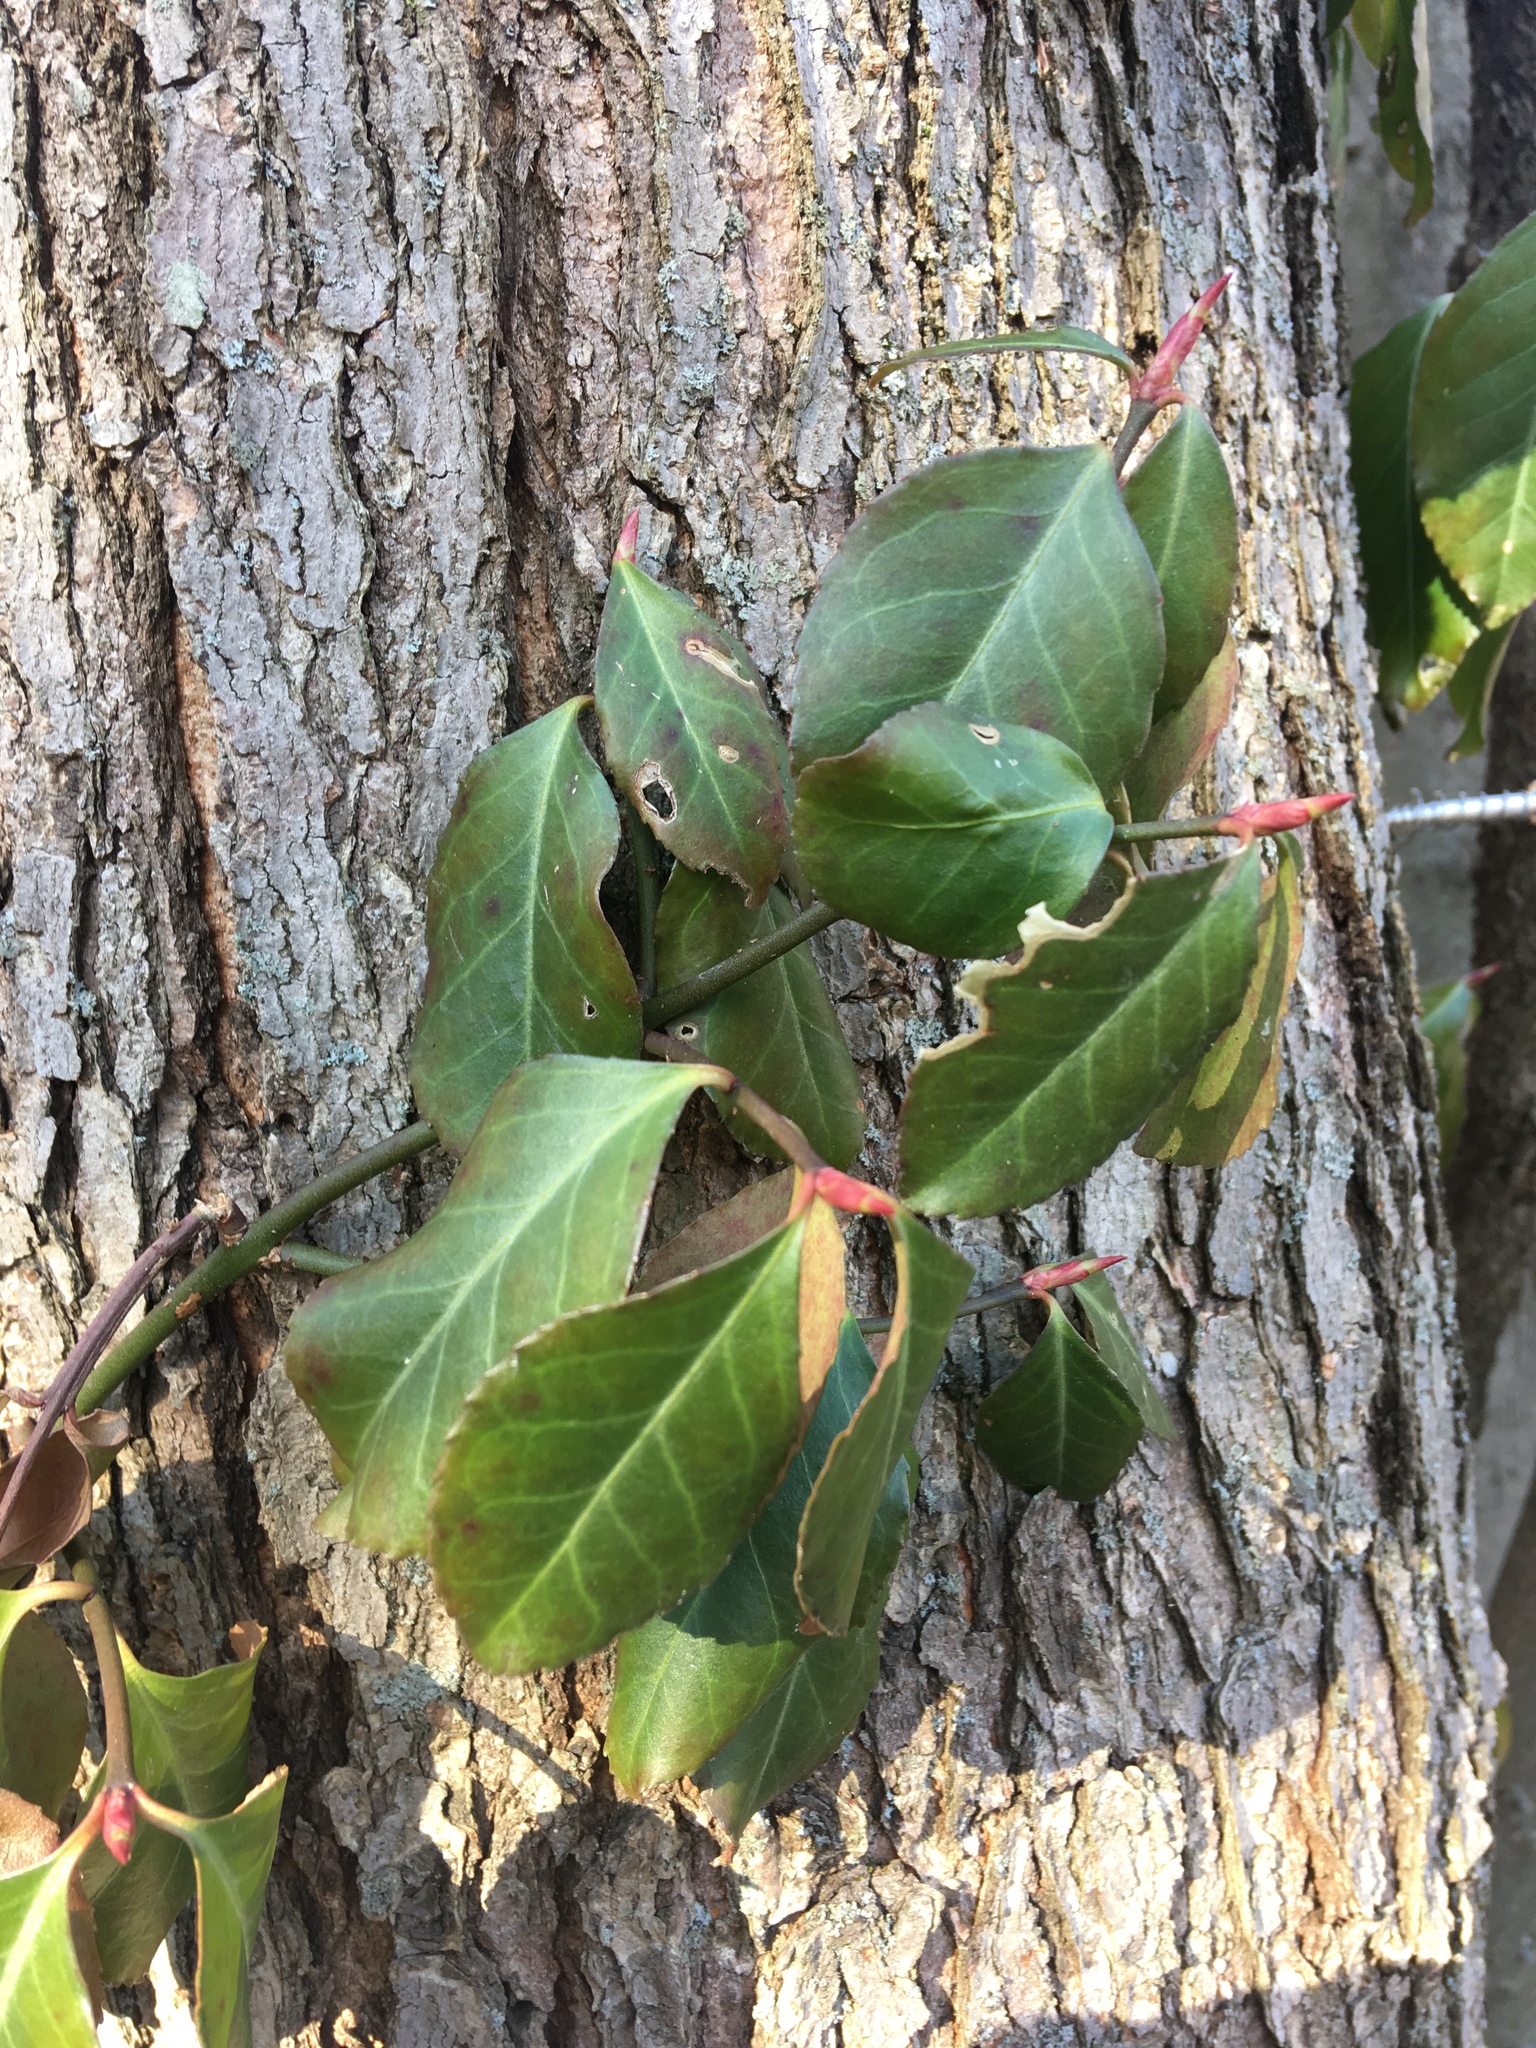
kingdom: Plantae
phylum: Tracheophyta
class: Magnoliopsida
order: Celastrales
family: Celastraceae
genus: Euonymus
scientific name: Euonymus fortunei
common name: Climbing euonymus
